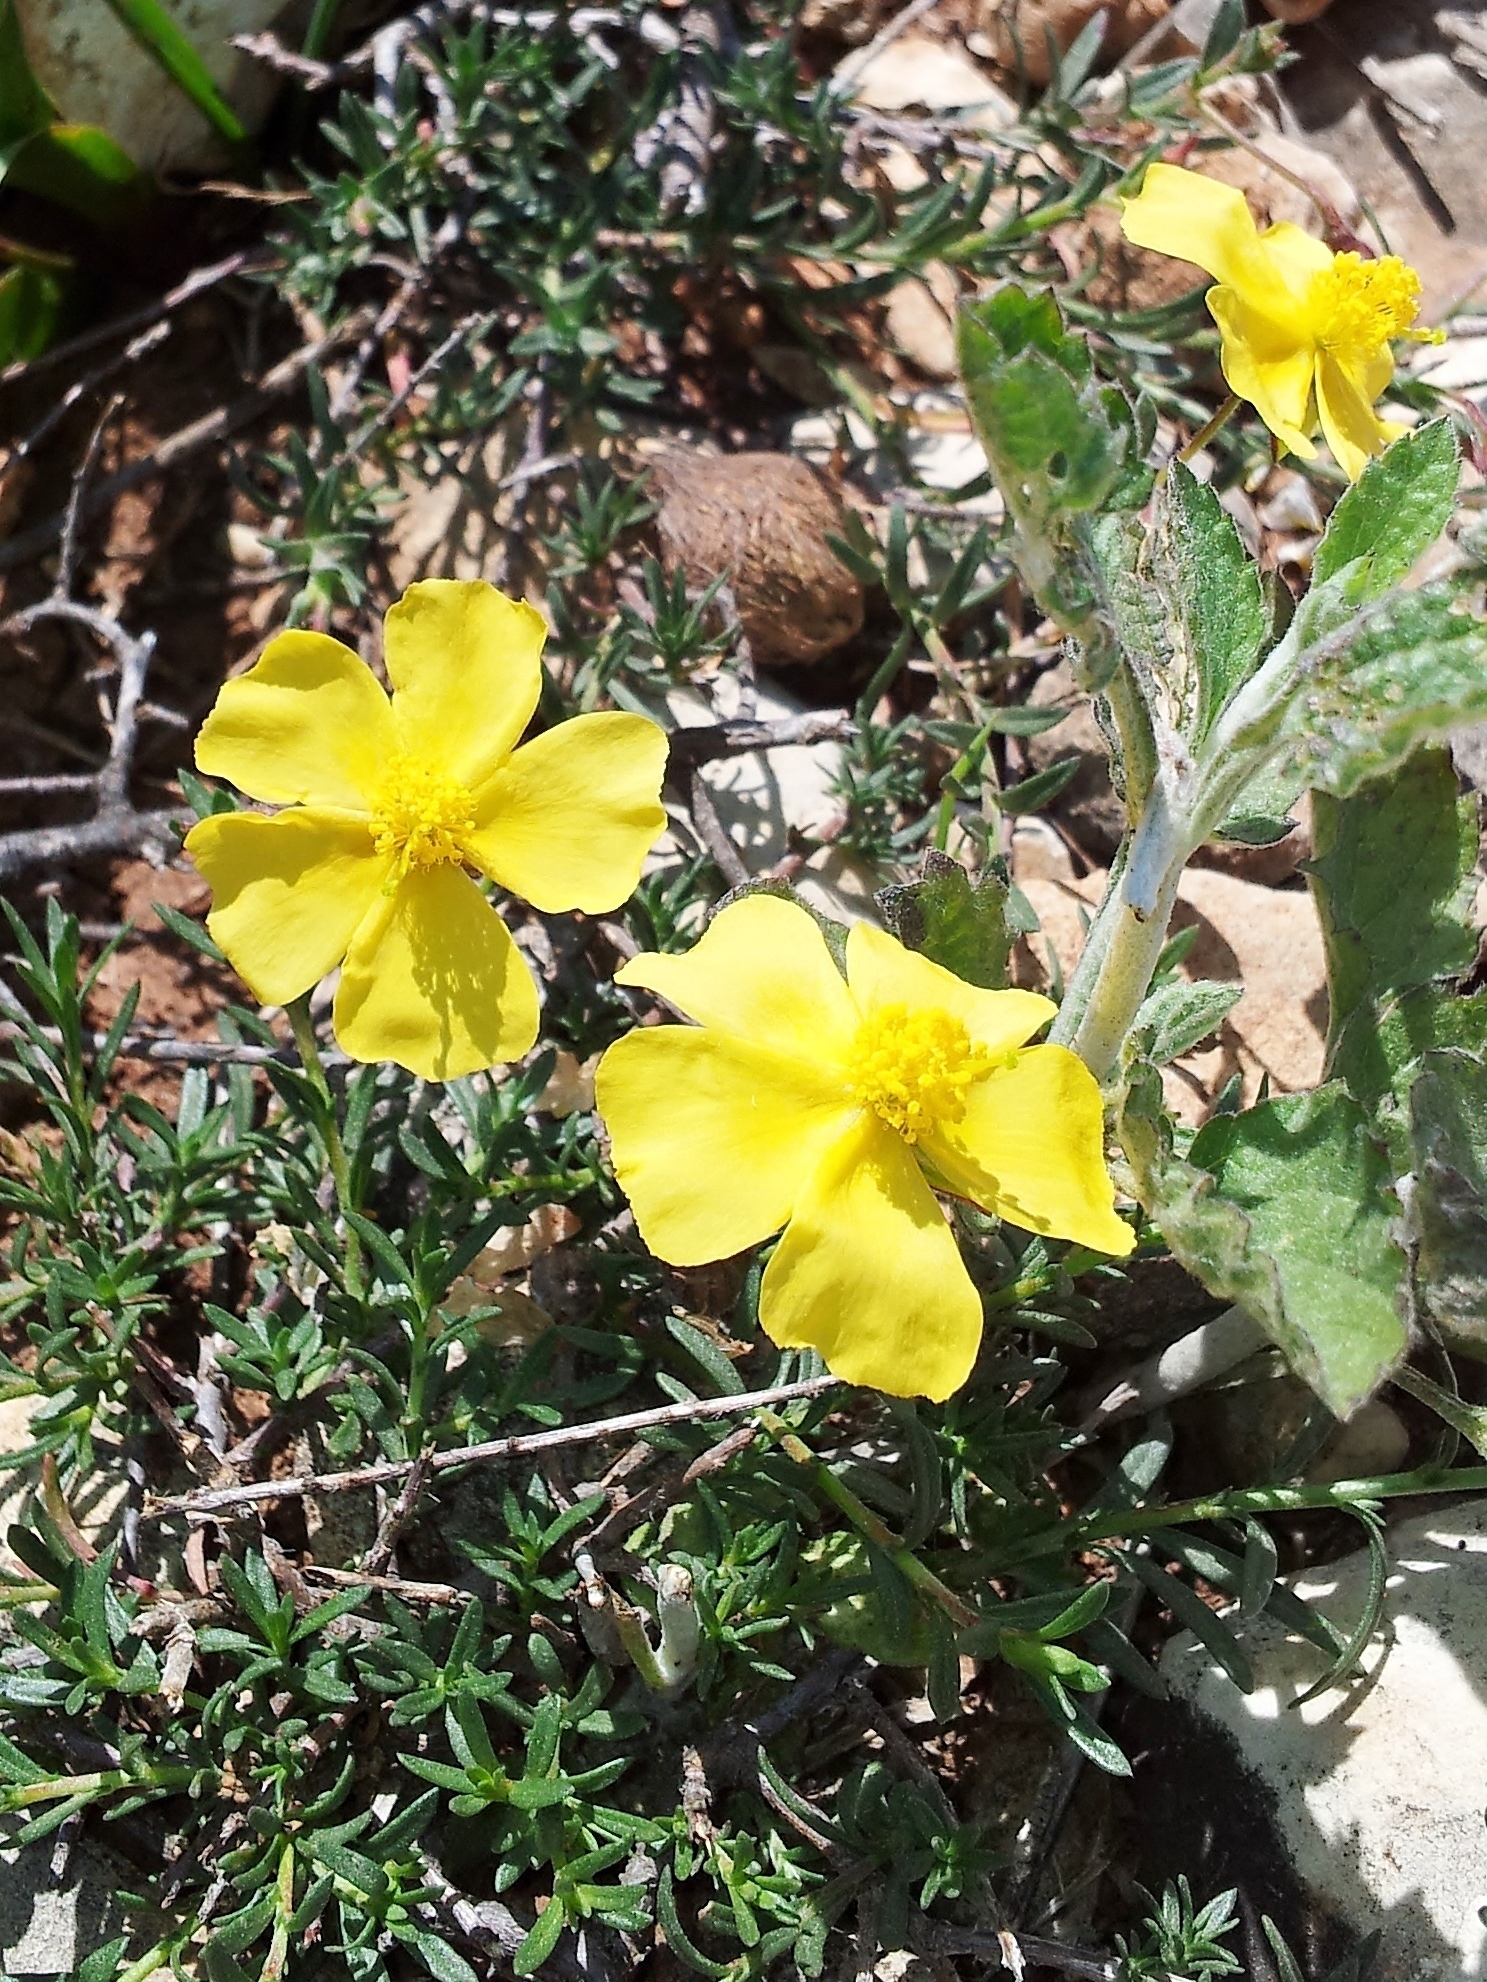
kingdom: Plantae
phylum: Tracheophyta
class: Magnoliopsida
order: Malvales
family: Cistaceae
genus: Fumana
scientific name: Fumana arabica
